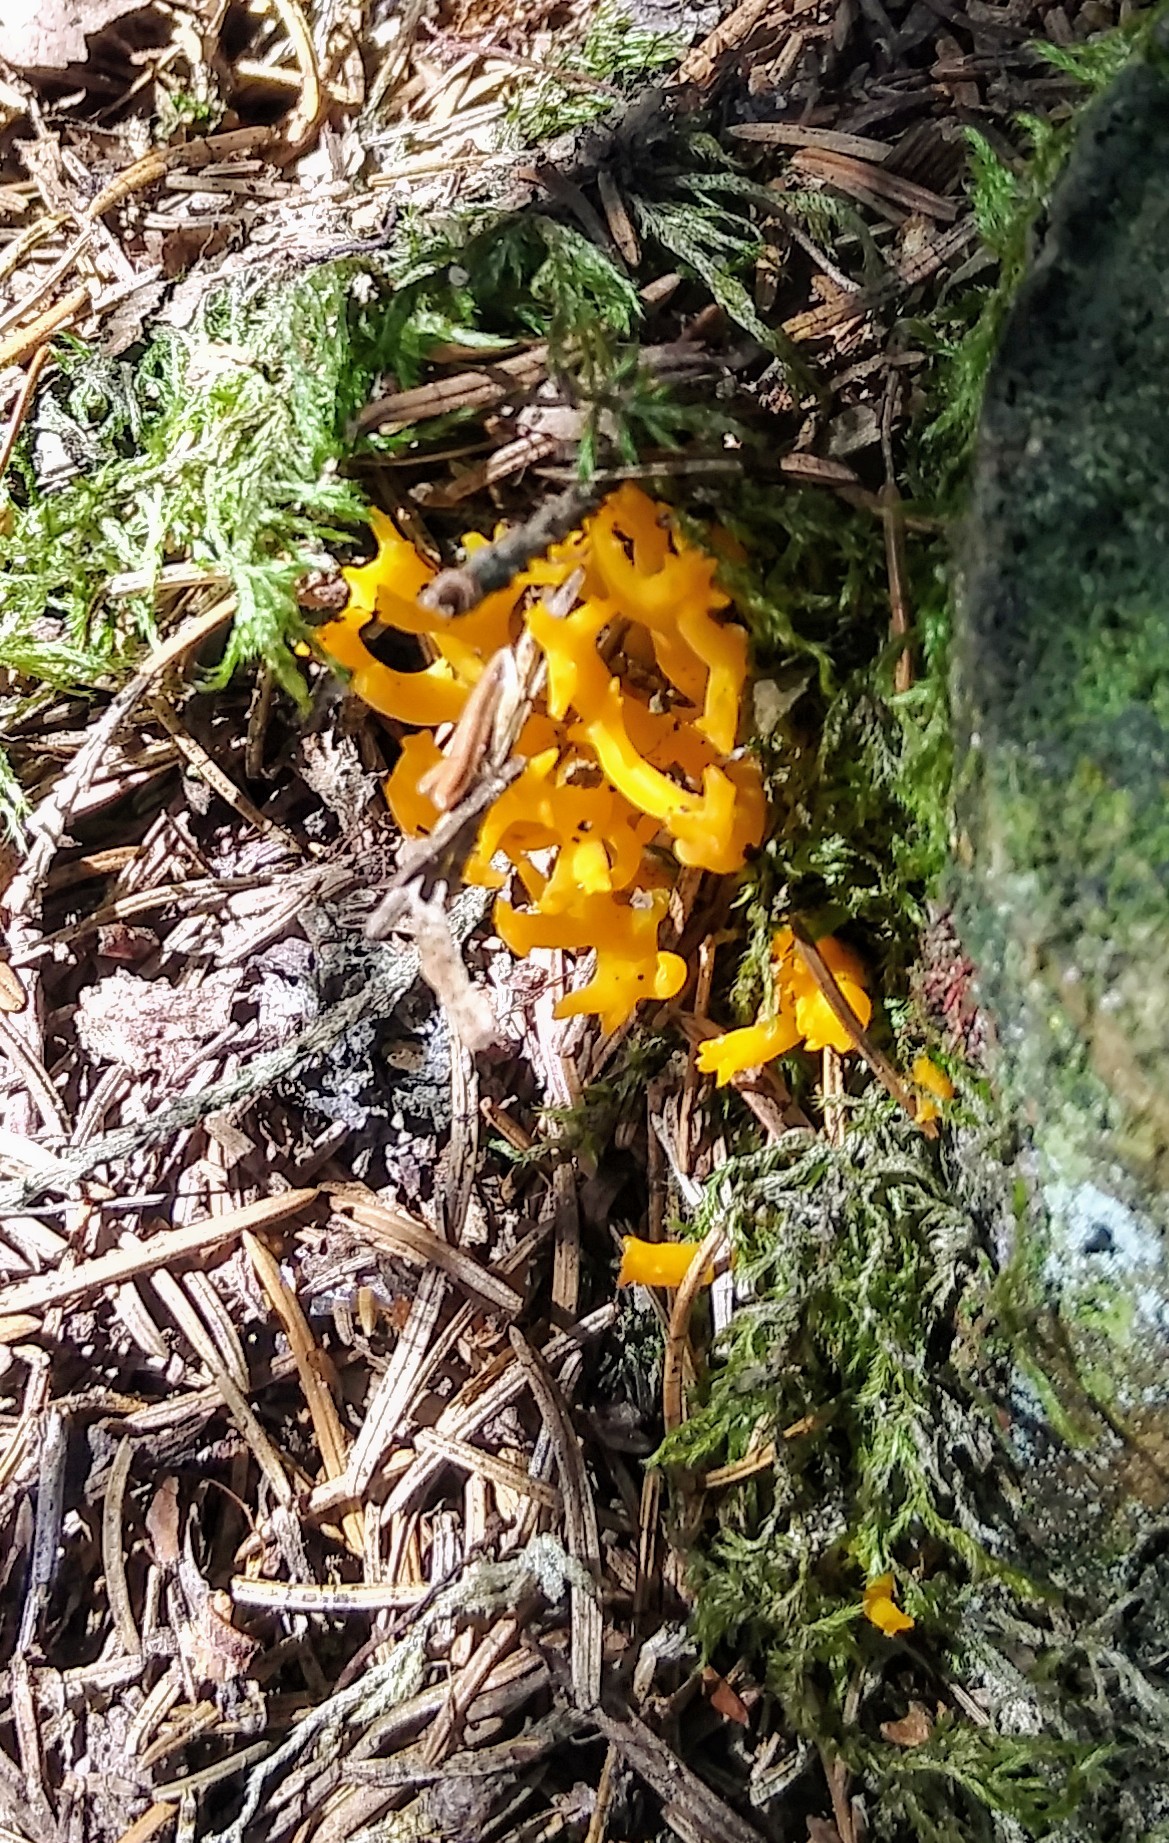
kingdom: Fungi
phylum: Basidiomycota
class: Dacrymycetes
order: Dacrymycetales
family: Dacrymycetaceae
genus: Calocera
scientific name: Calocera viscosa
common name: Yellow stagshorn
